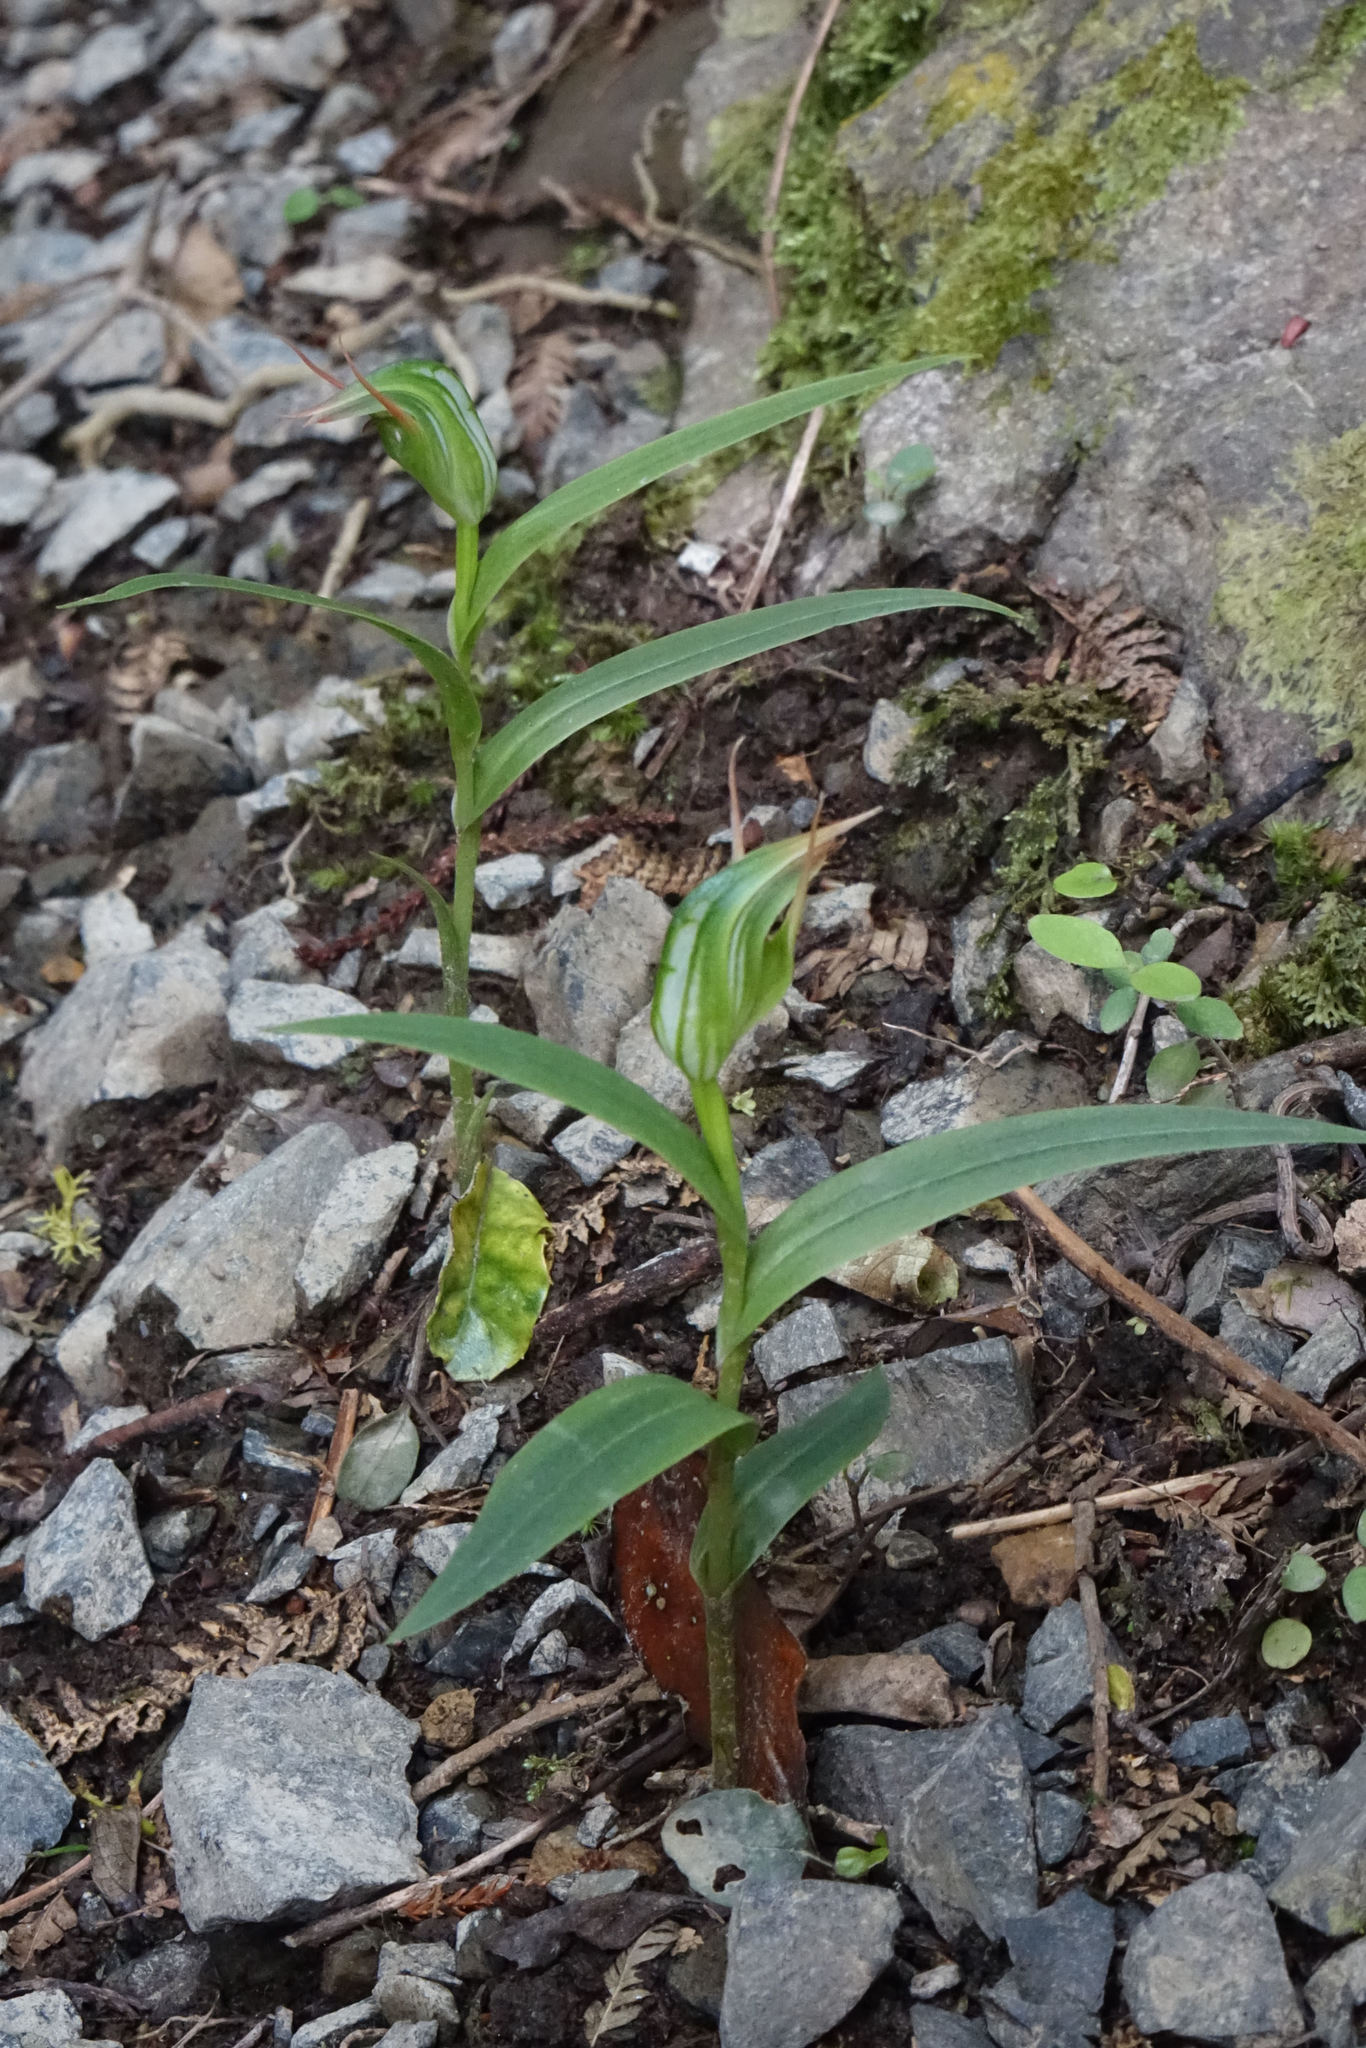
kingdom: Plantae
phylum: Tracheophyta
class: Liliopsida
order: Asparagales
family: Orchidaceae
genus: Pterostylis
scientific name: Pterostylis montana
